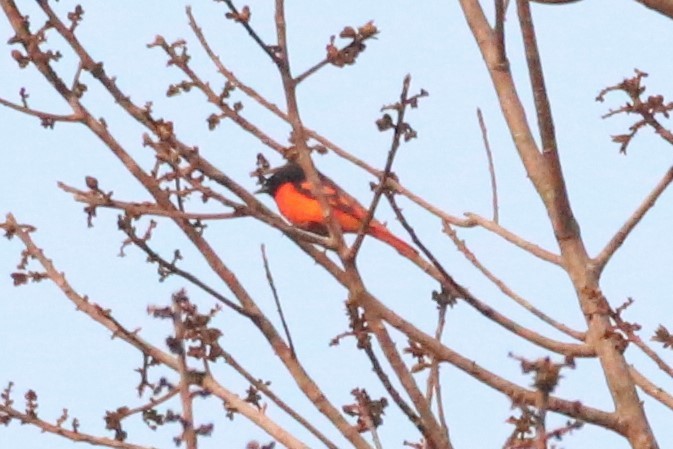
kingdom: Animalia
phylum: Chordata
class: Aves
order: Passeriformes
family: Campephagidae
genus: Pericrocotus
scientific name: Pericrocotus speciosus
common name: Scarlet minivet
